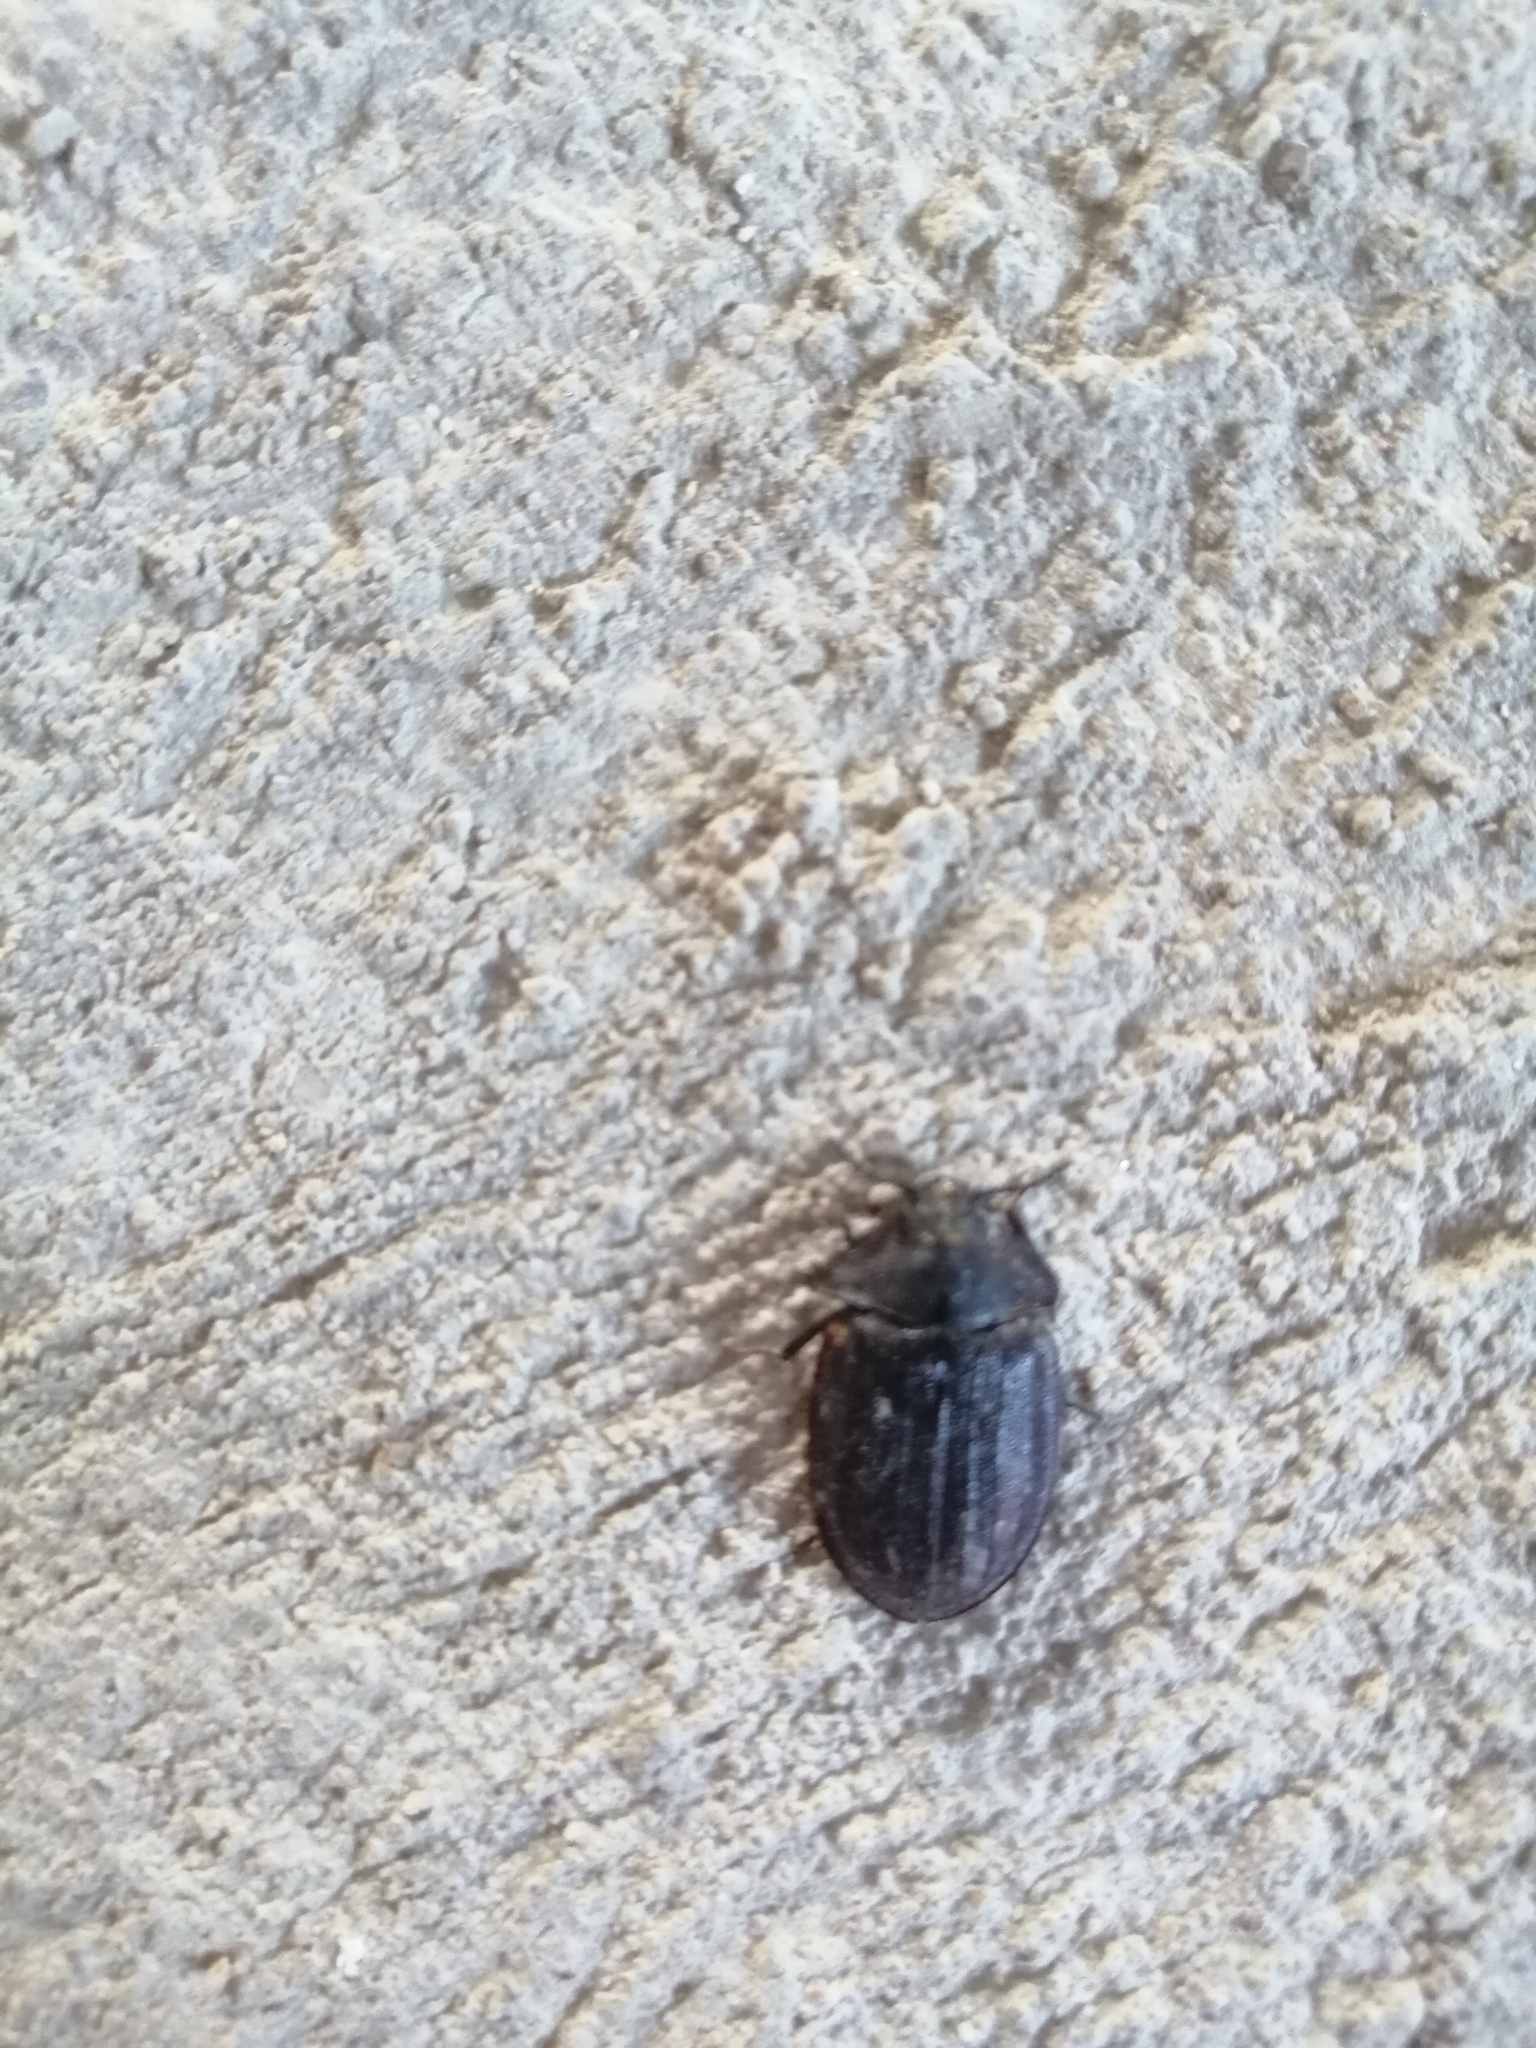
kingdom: Animalia
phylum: Arthropoda
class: Insecta
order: Coleoptera
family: Trogossitidae
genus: Peltis
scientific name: Peltis grossa
